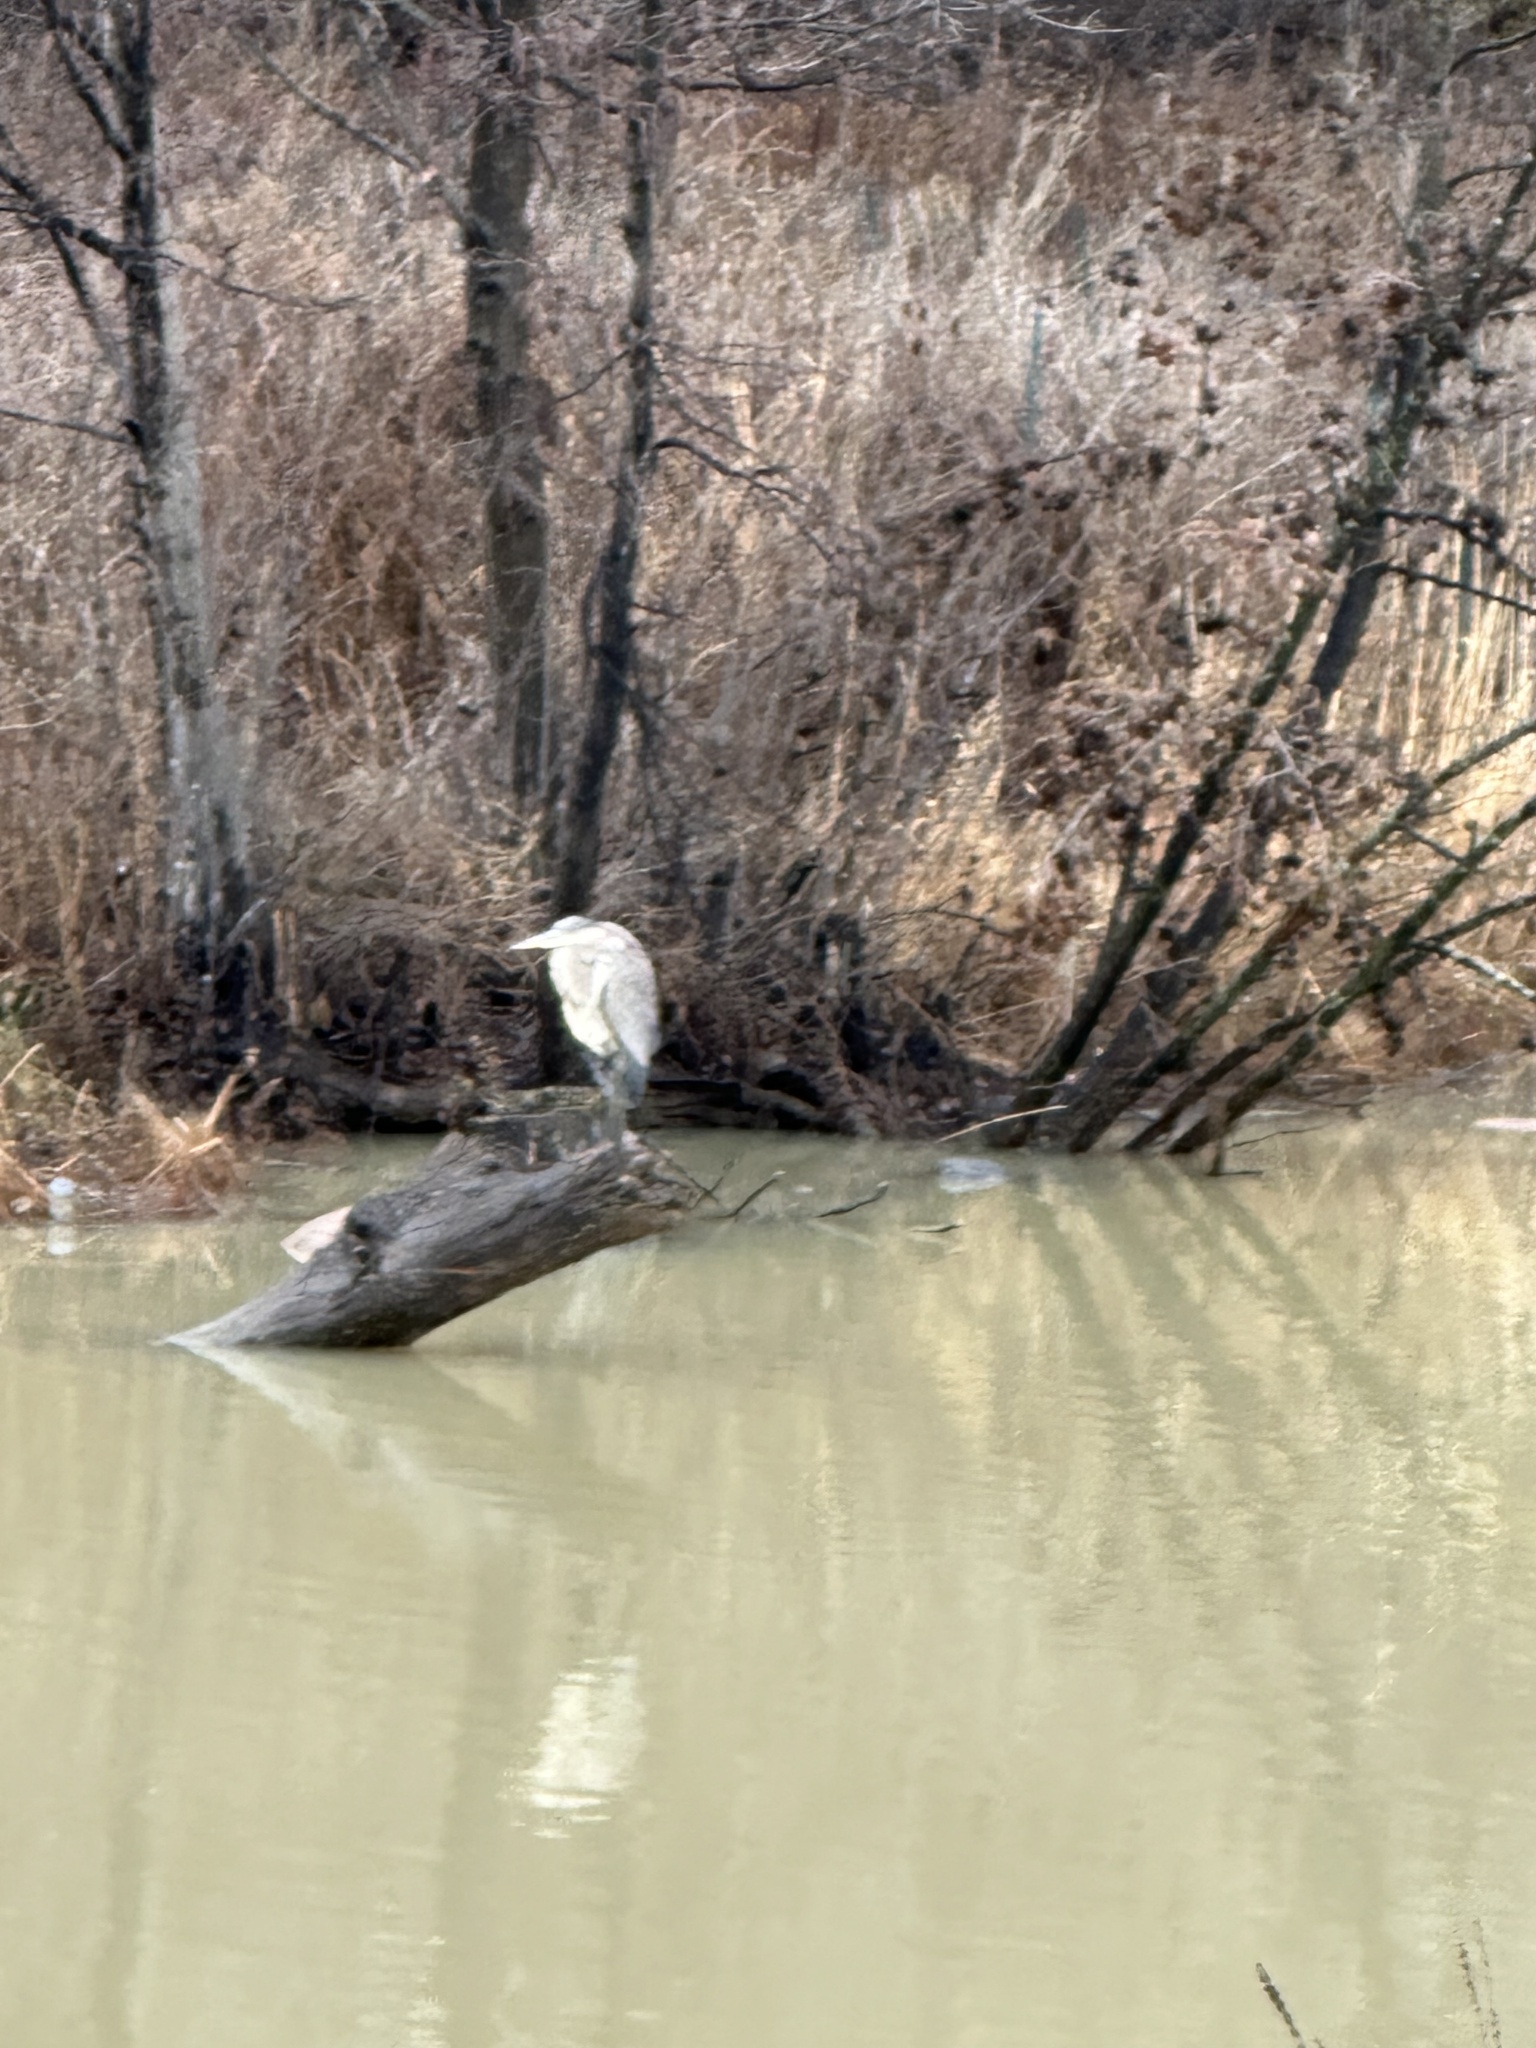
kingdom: Animalia
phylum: Chordata
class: Aves
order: Pelecaniformes
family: Ardeidae
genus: Ardea
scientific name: Ardea herodias
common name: Great blue heron
